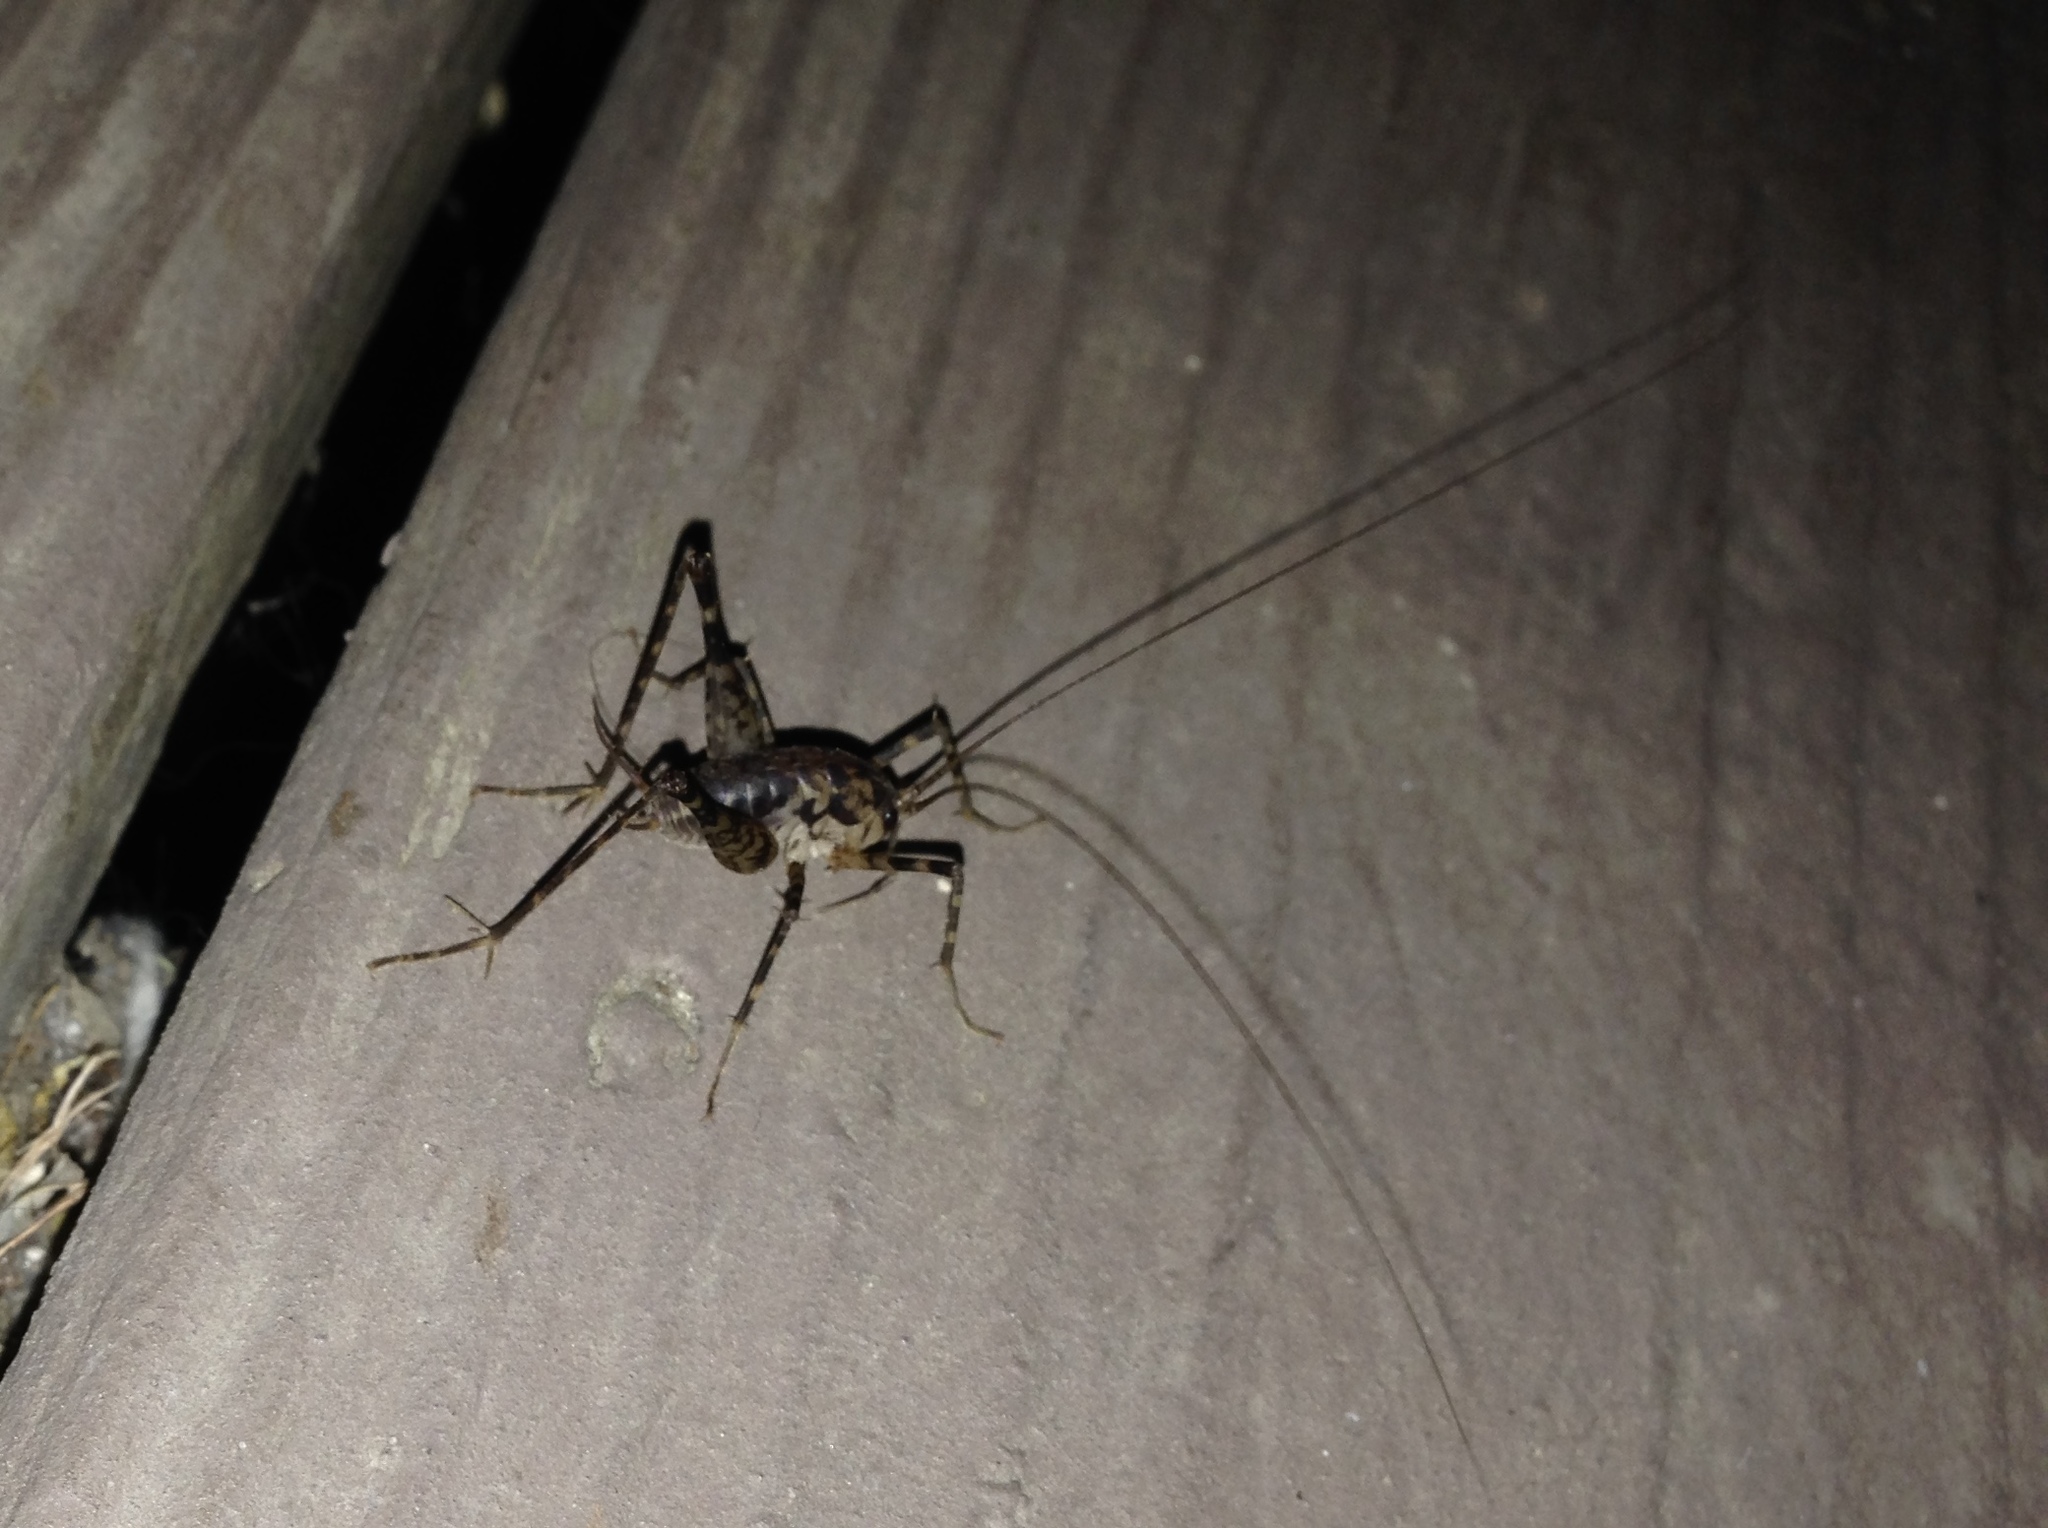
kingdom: Animalia
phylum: Arthropoda
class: Insecta
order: Orthoptera
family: Rhaphidophoridae
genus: Diestrammena
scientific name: Diestrammena japanica
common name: Japanese camel cricket
